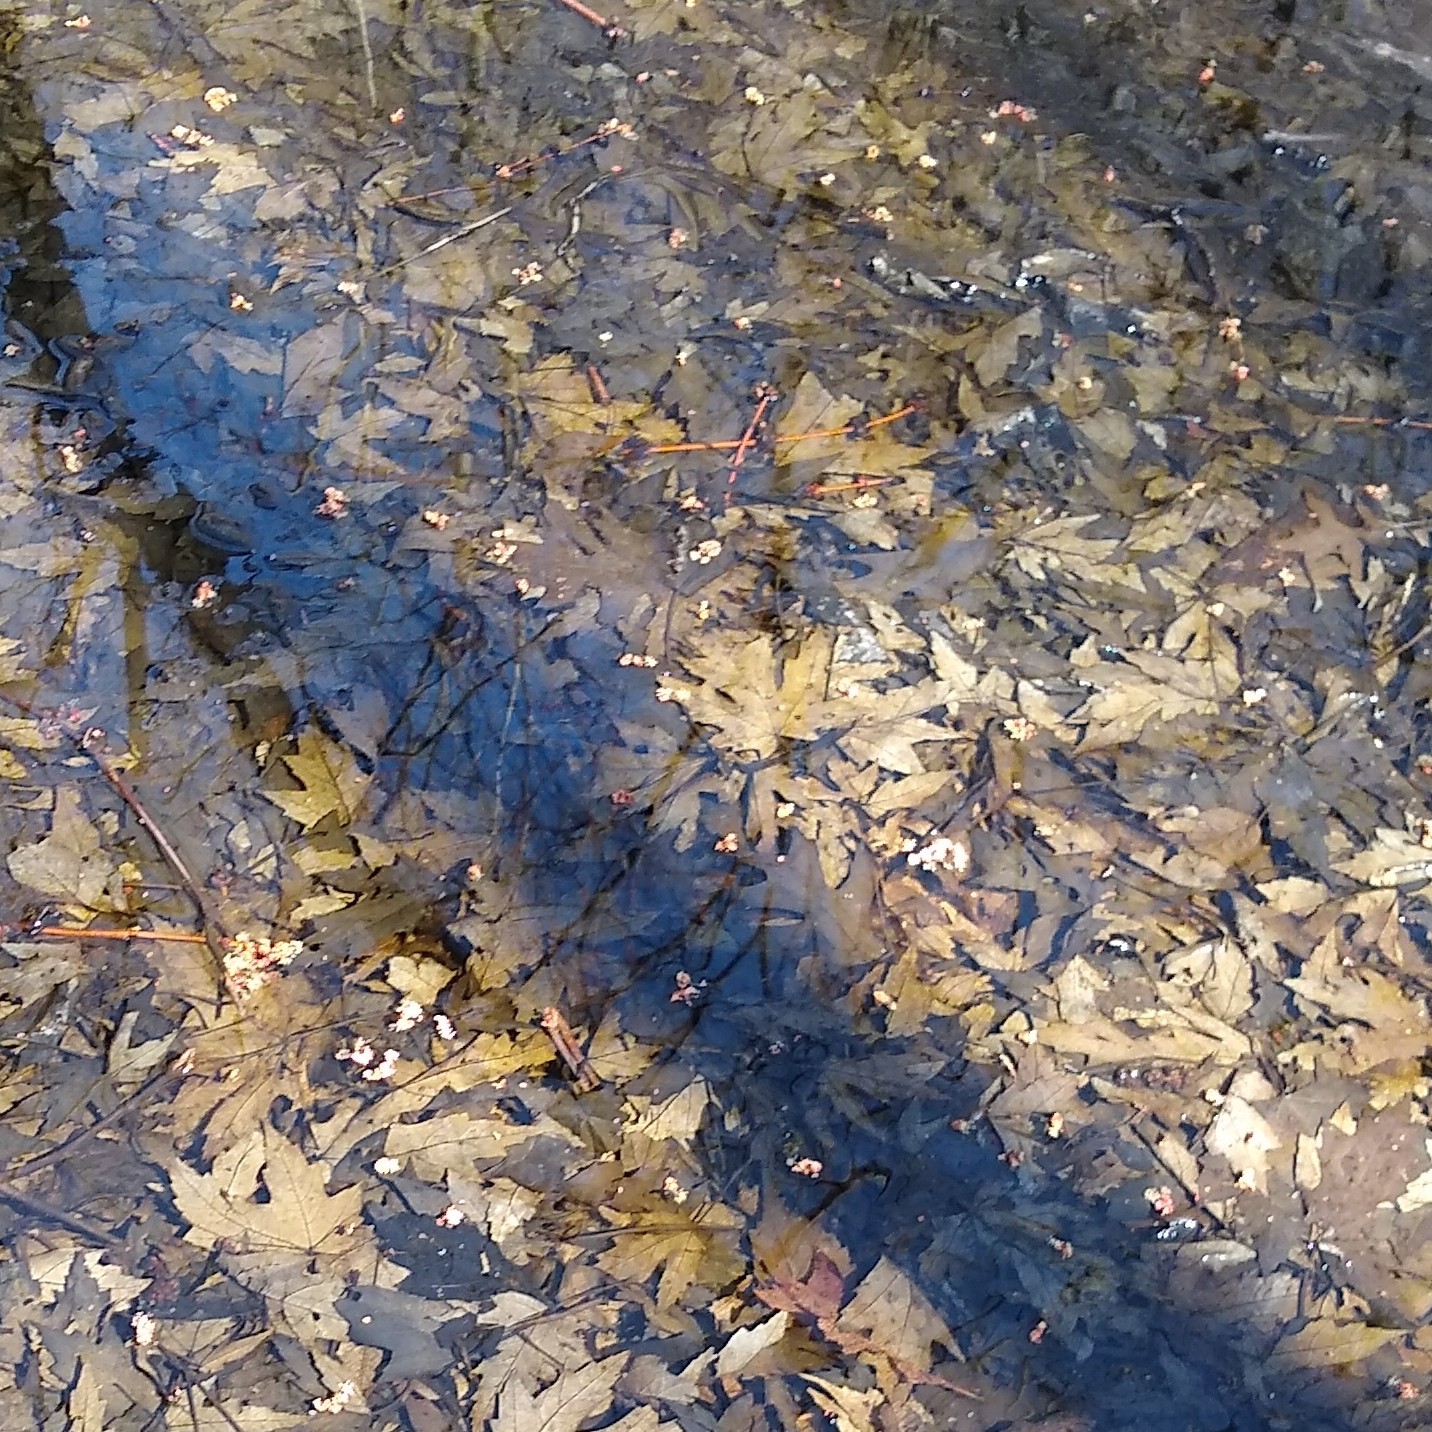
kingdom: Plantae
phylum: Tracheophyta
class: Magnoliopsida
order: Sapindales
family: Sapindaceae
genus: Acer
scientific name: Acer saccharinum
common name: Silver maple
